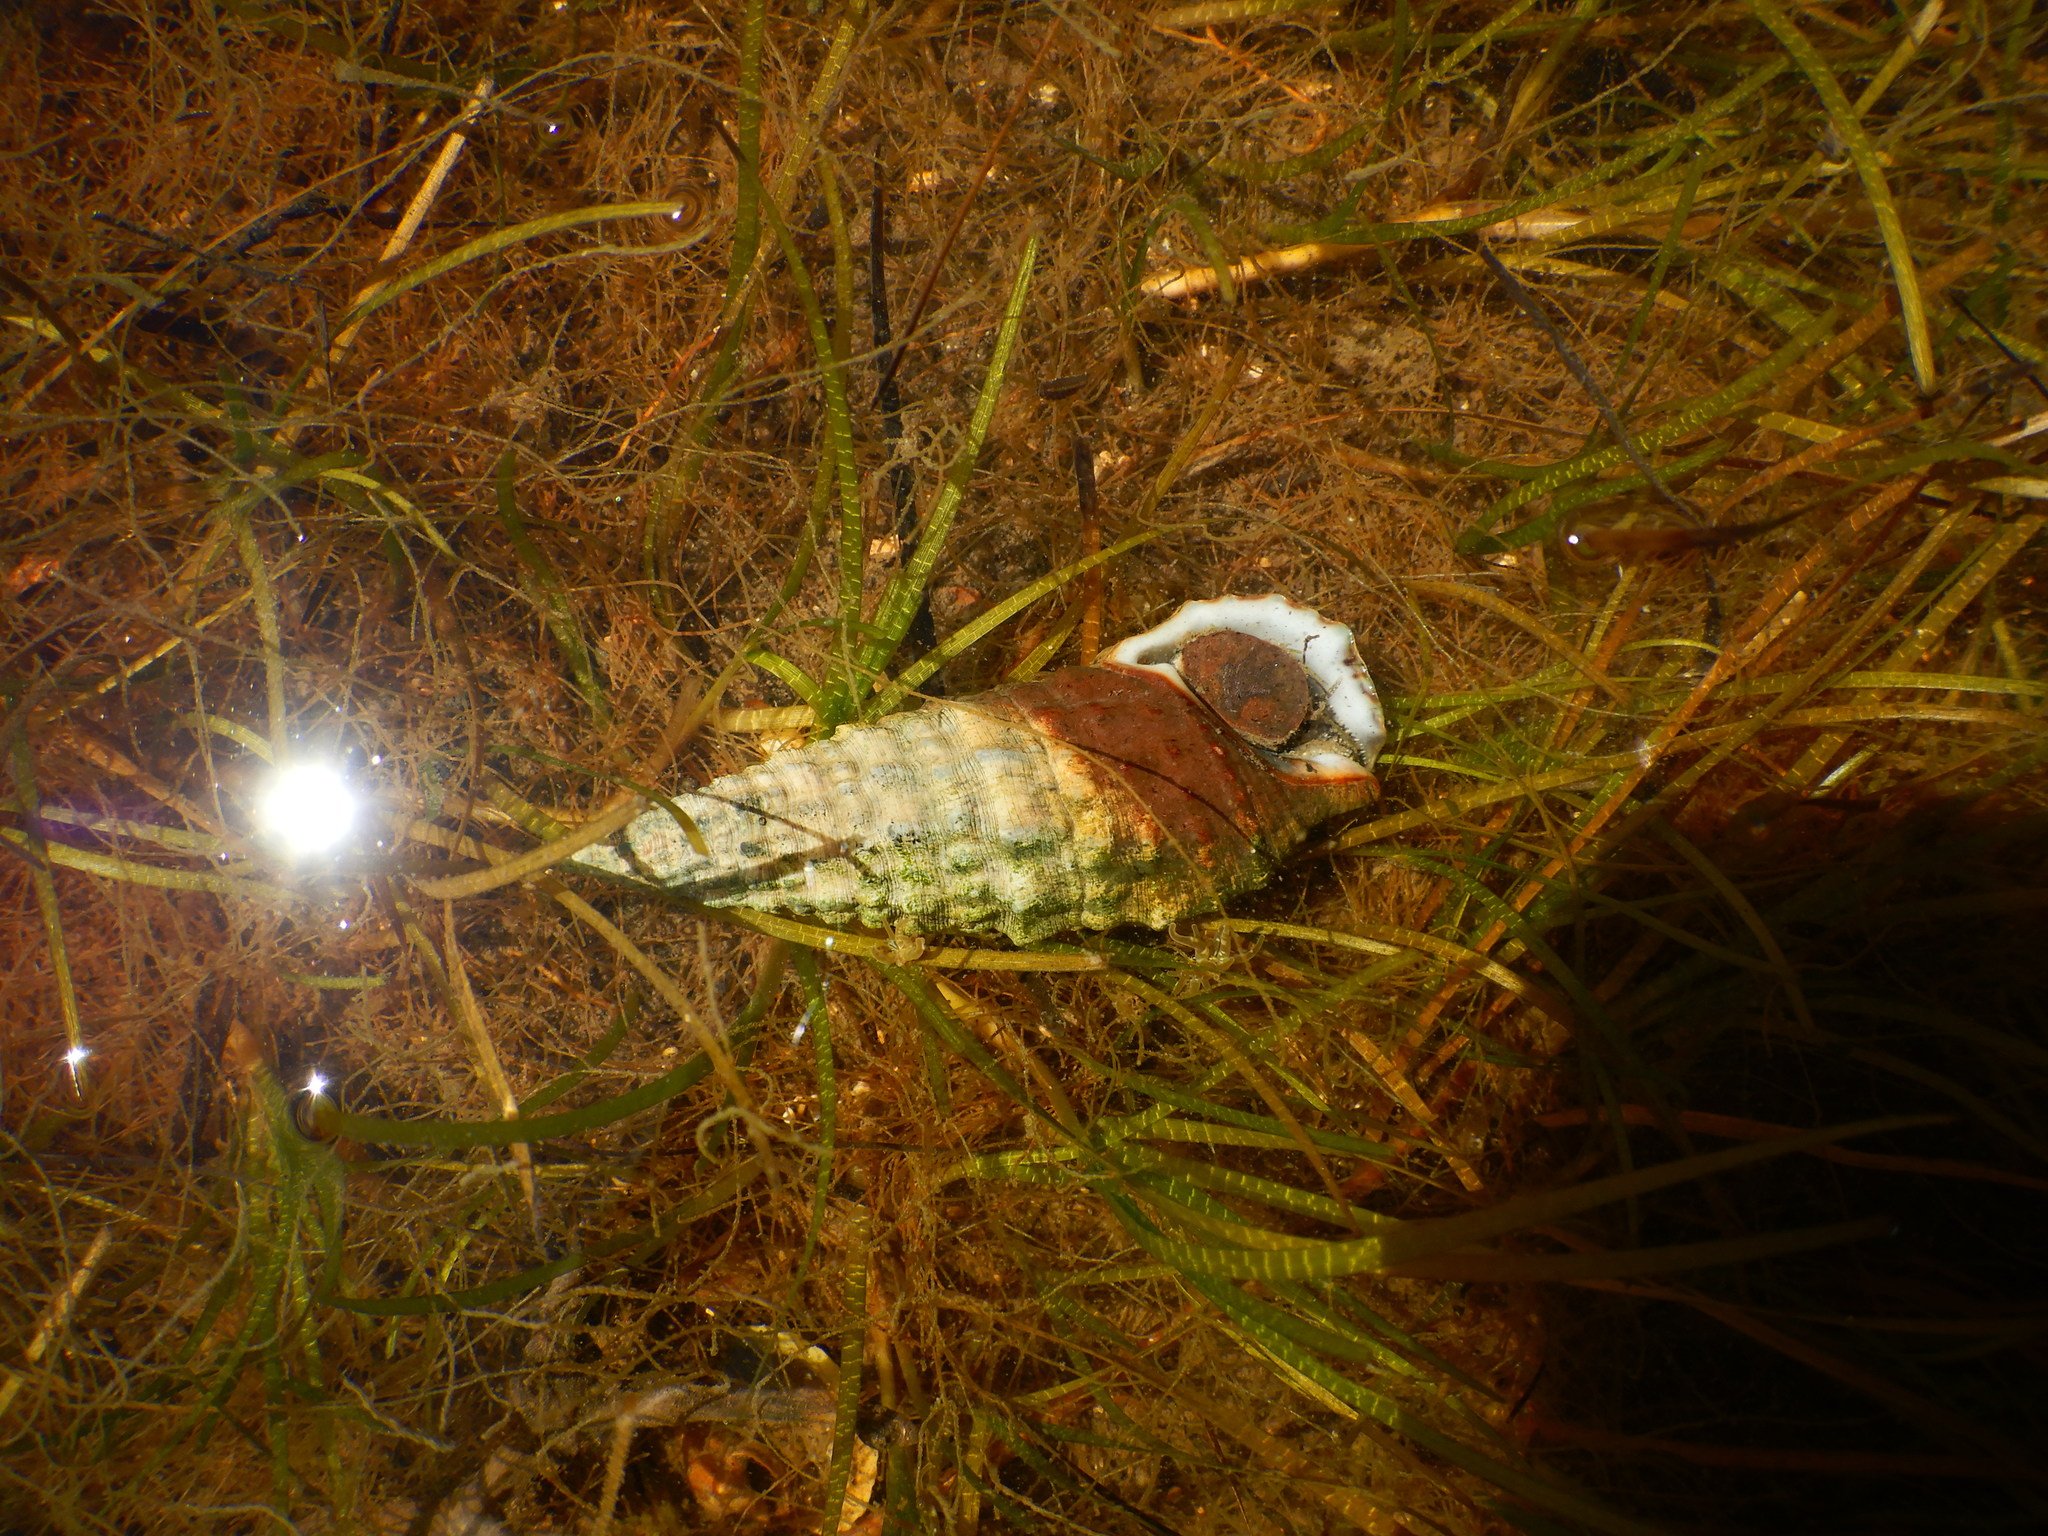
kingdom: Animalia
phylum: Mollusca
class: Gastropoda
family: Cerithiidae
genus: Cerithium
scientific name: Cerithium vulgatum
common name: European cerith
